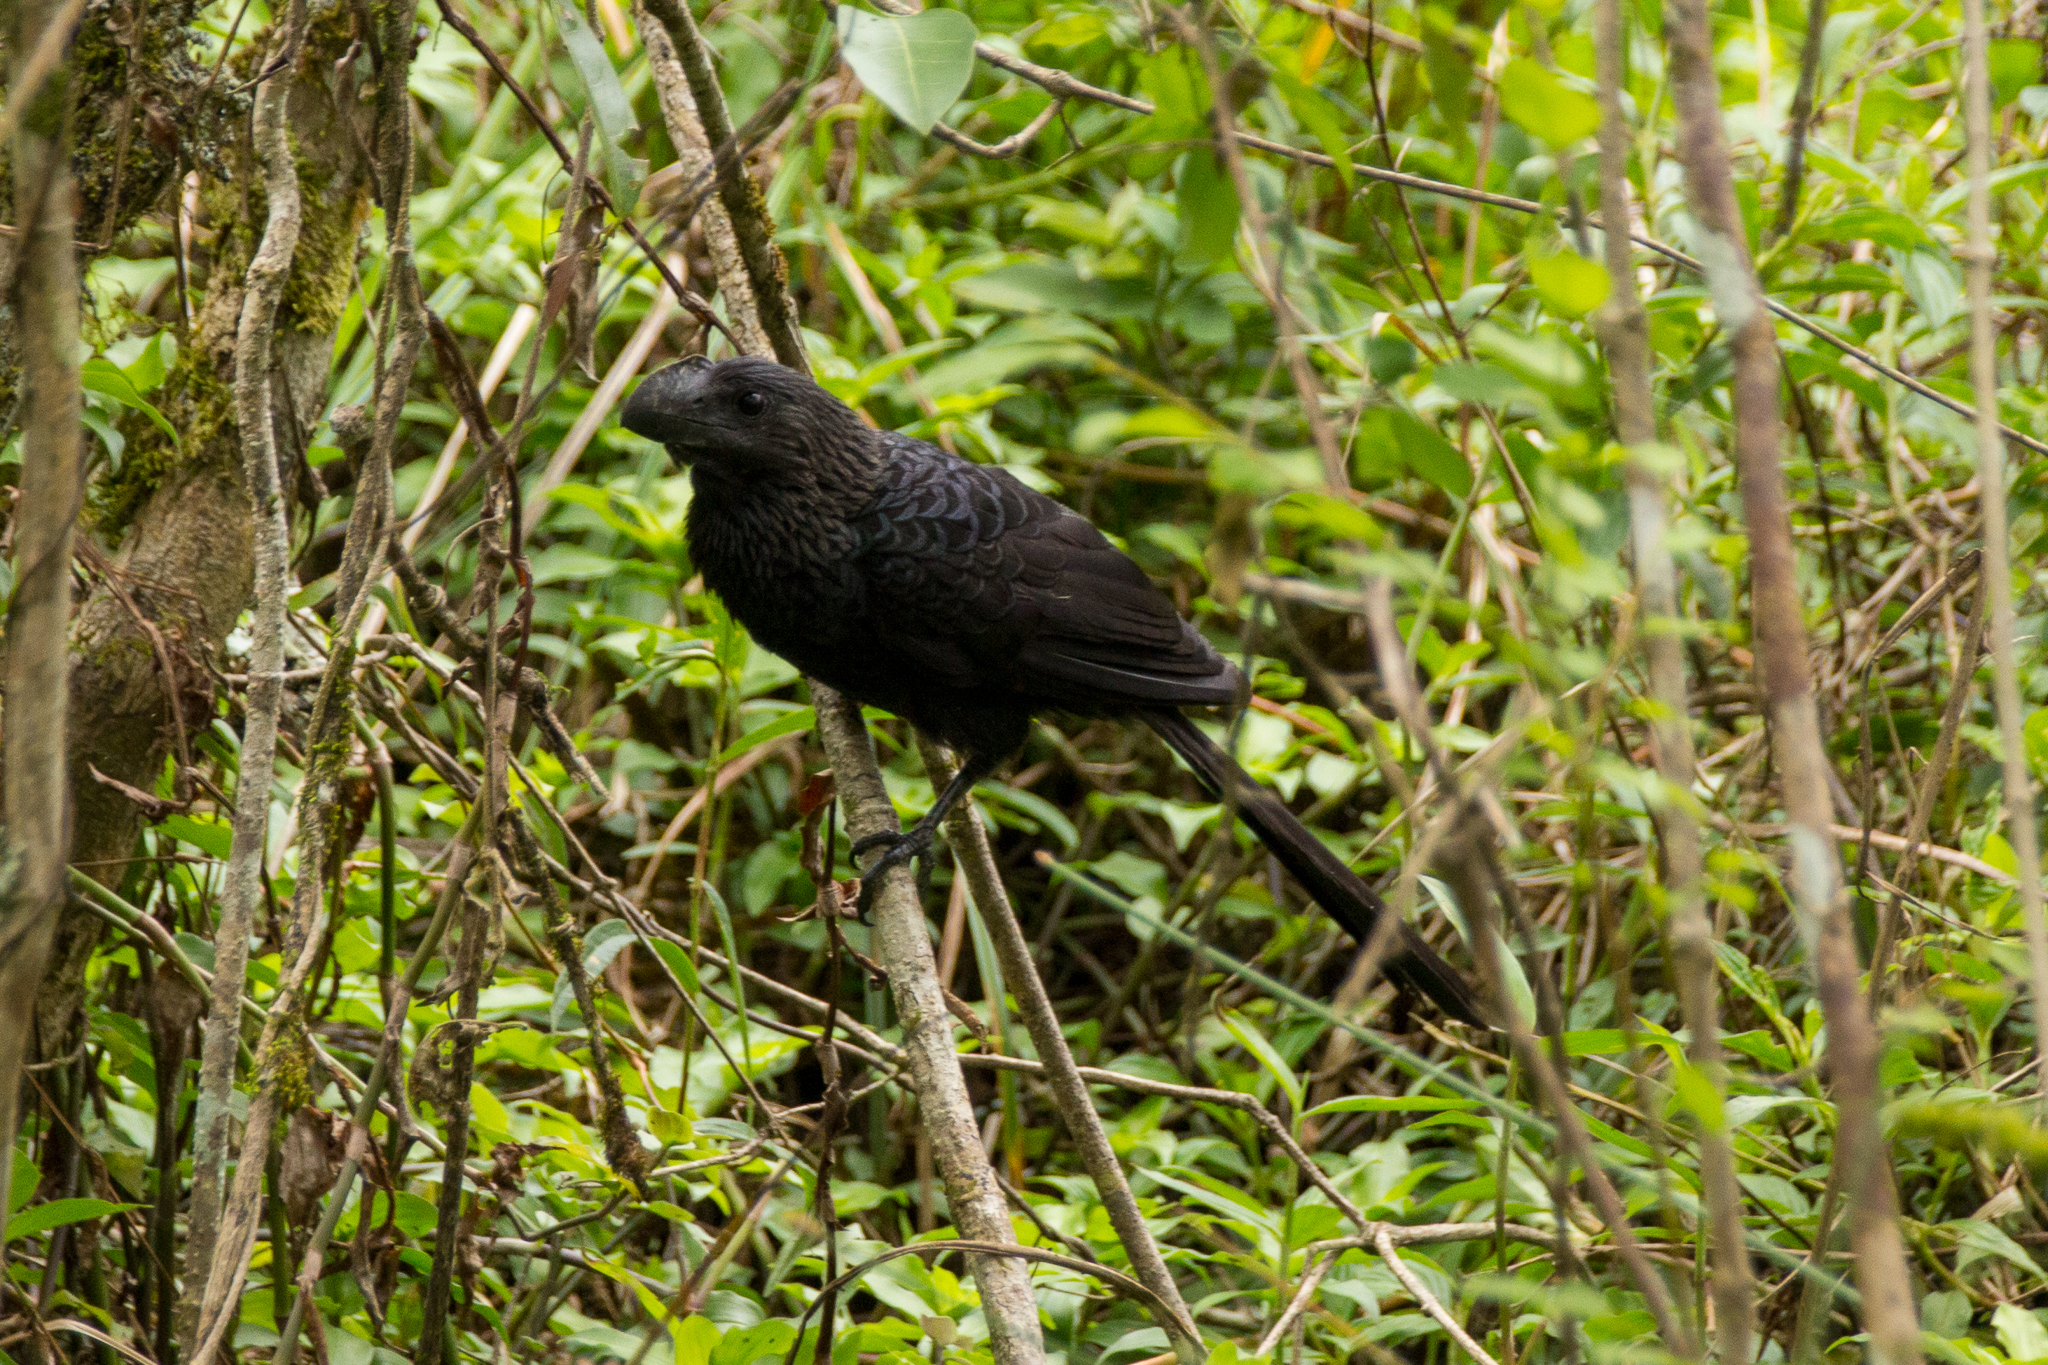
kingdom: Animalia
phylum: Chordata
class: Aves
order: Cuculiformes
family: Cuculidae
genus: Crotophaga
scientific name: Crotophaga ani
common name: Smooth-billed ani
